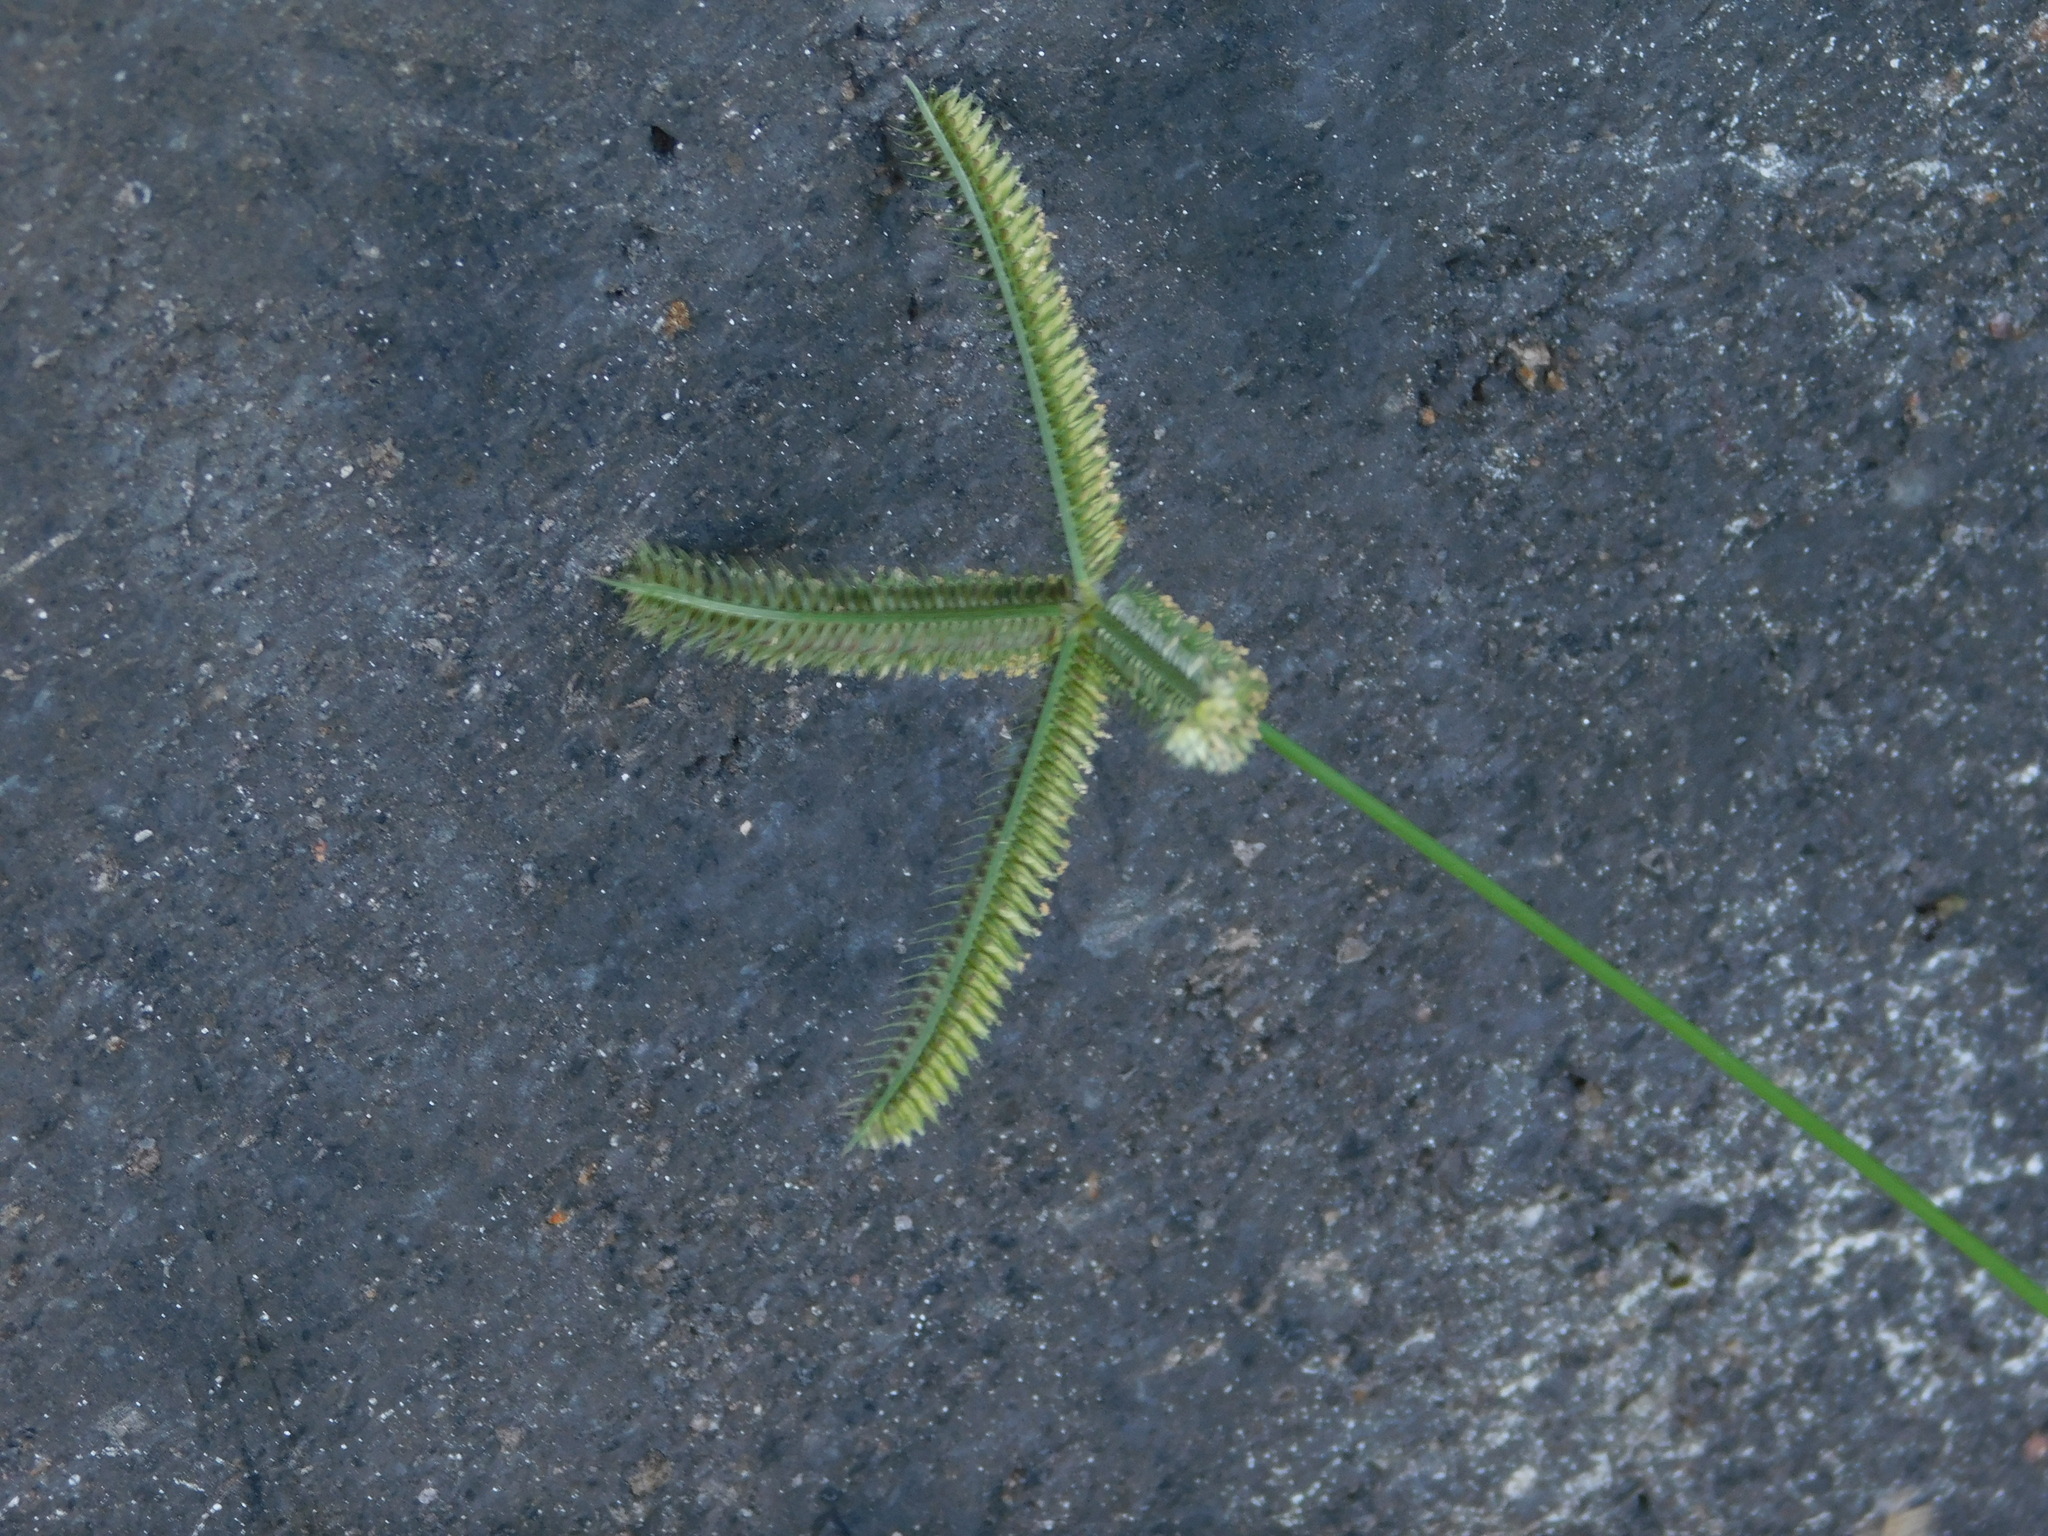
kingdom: Plantae
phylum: Tracheophyta
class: Liliopsida
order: Poales
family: Poaceae
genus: Dactyloctenium
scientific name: Dactyloctenium aegyptium
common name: Egyptian grass
